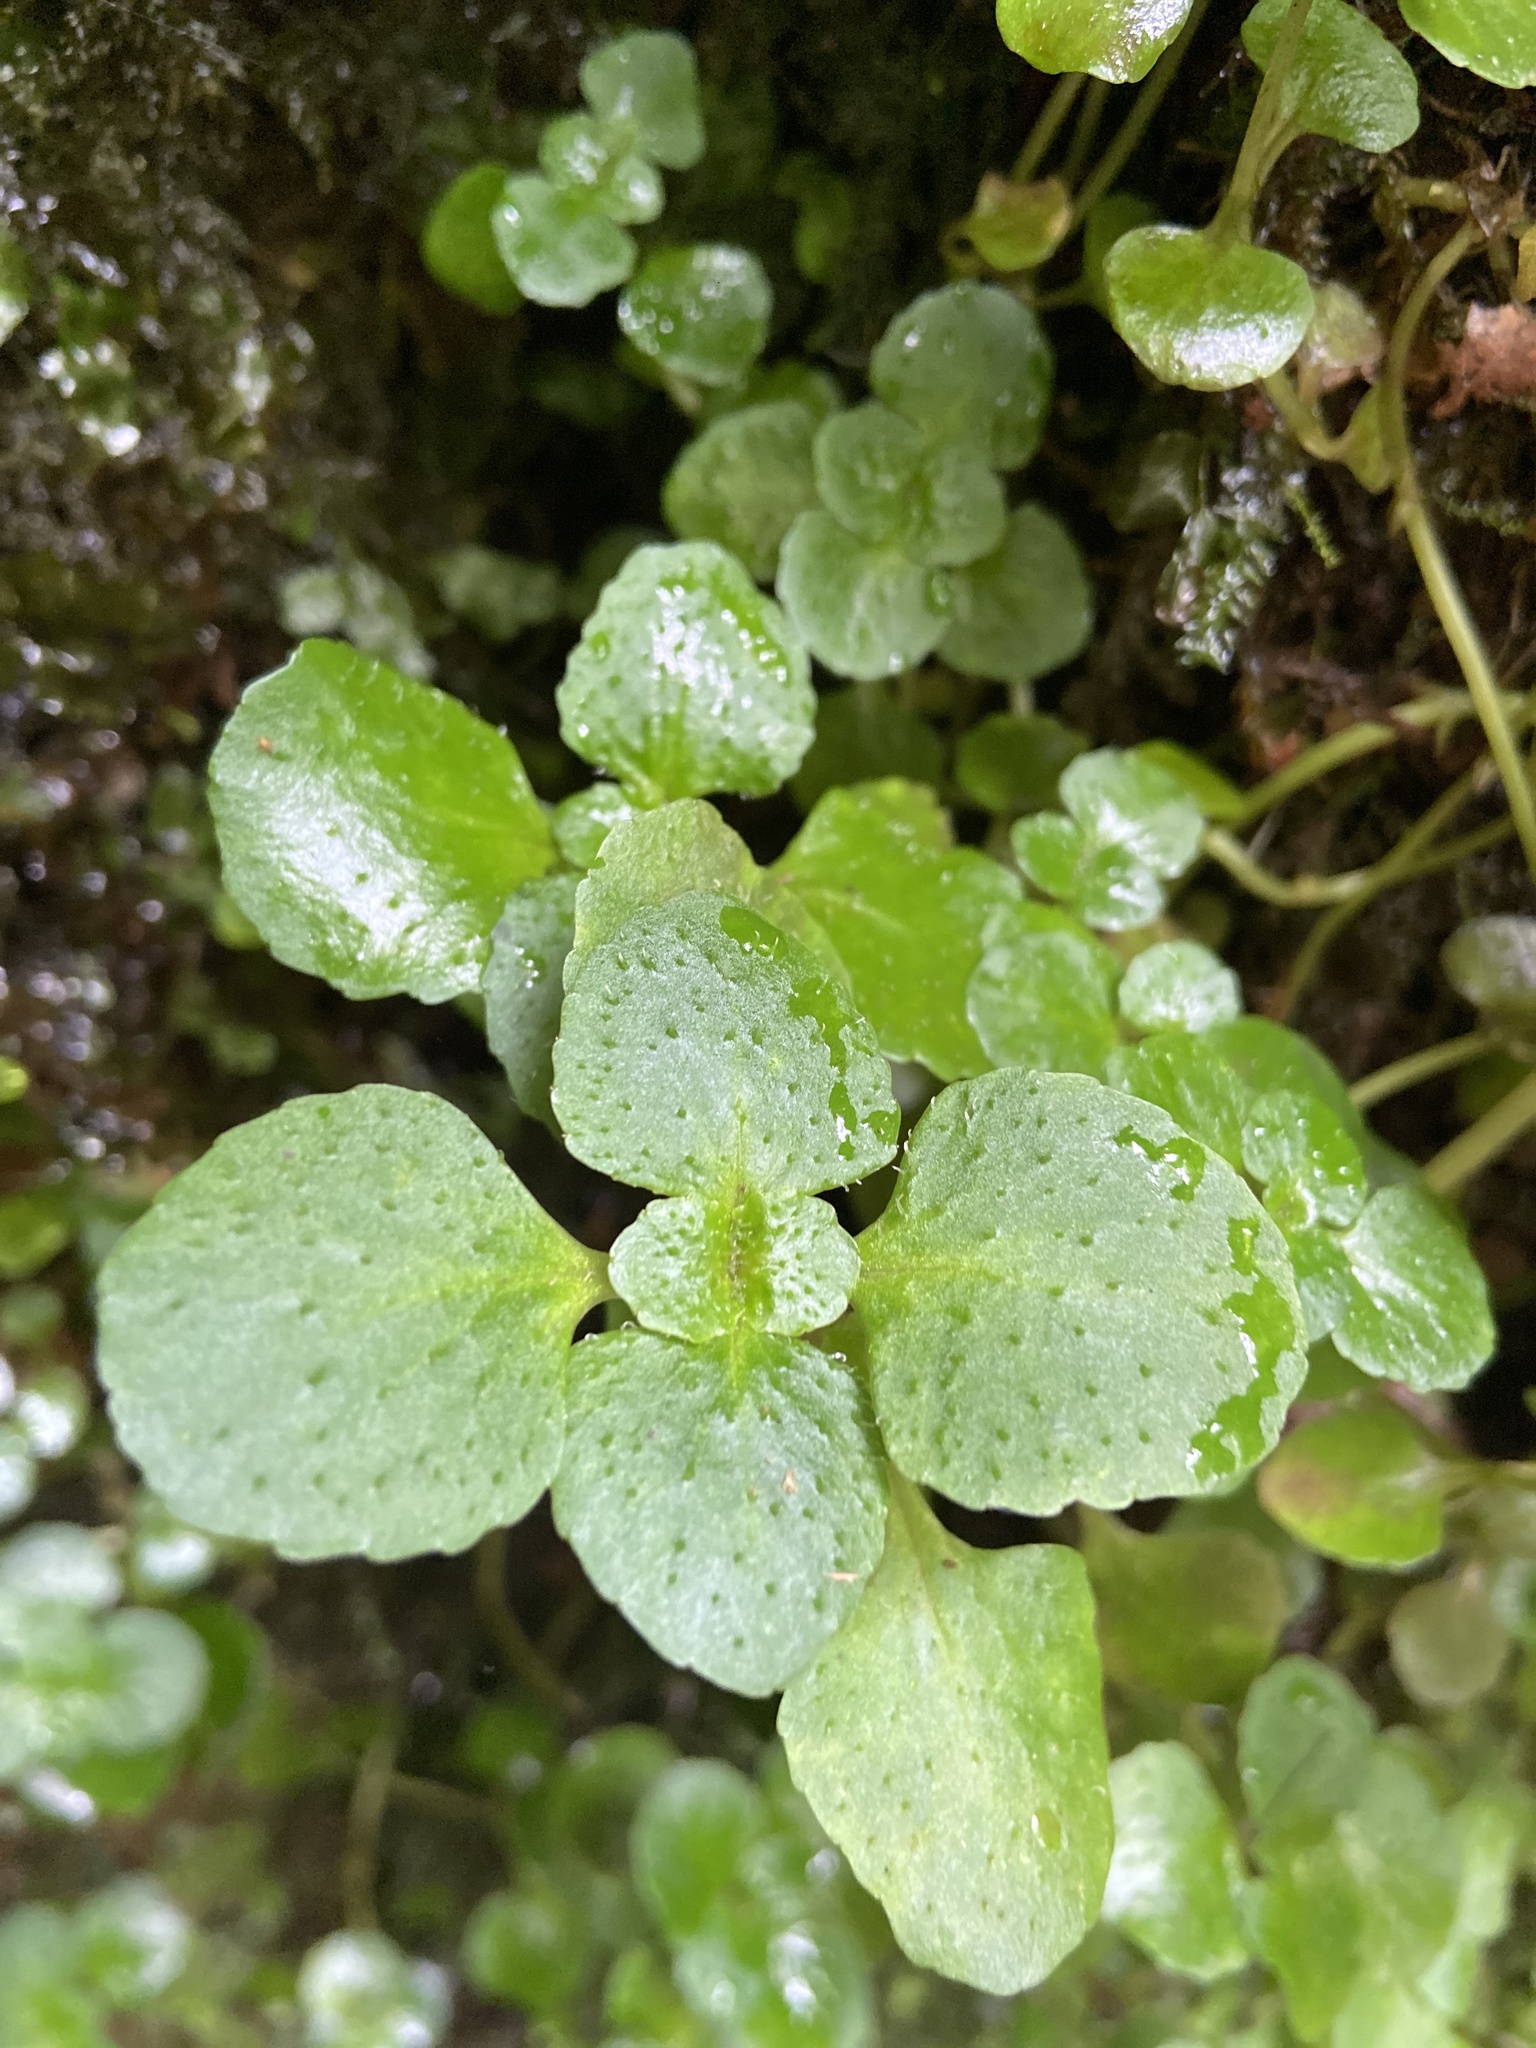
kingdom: Plantae
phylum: Tracheophyta
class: Magnoliopsida
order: Saxifragales
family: Saxifragaceae
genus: Chrysosplenium
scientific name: Chrysosplenium oppositifolium
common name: Opposite-leaved golden-saxifrage
